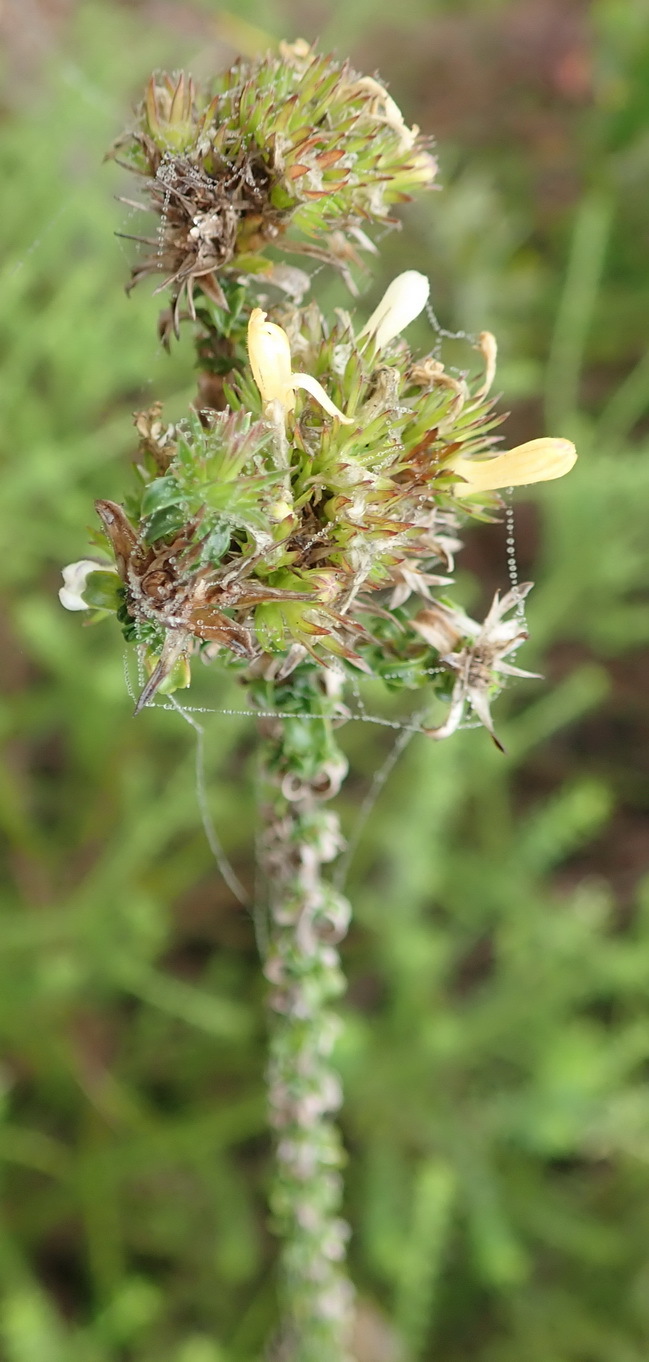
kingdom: Plantae
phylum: Tracheophyta
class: Magnoliopsida
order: Asterales
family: Campanulaceae
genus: Wahlenbergia
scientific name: Wahlenbergia desmantha
